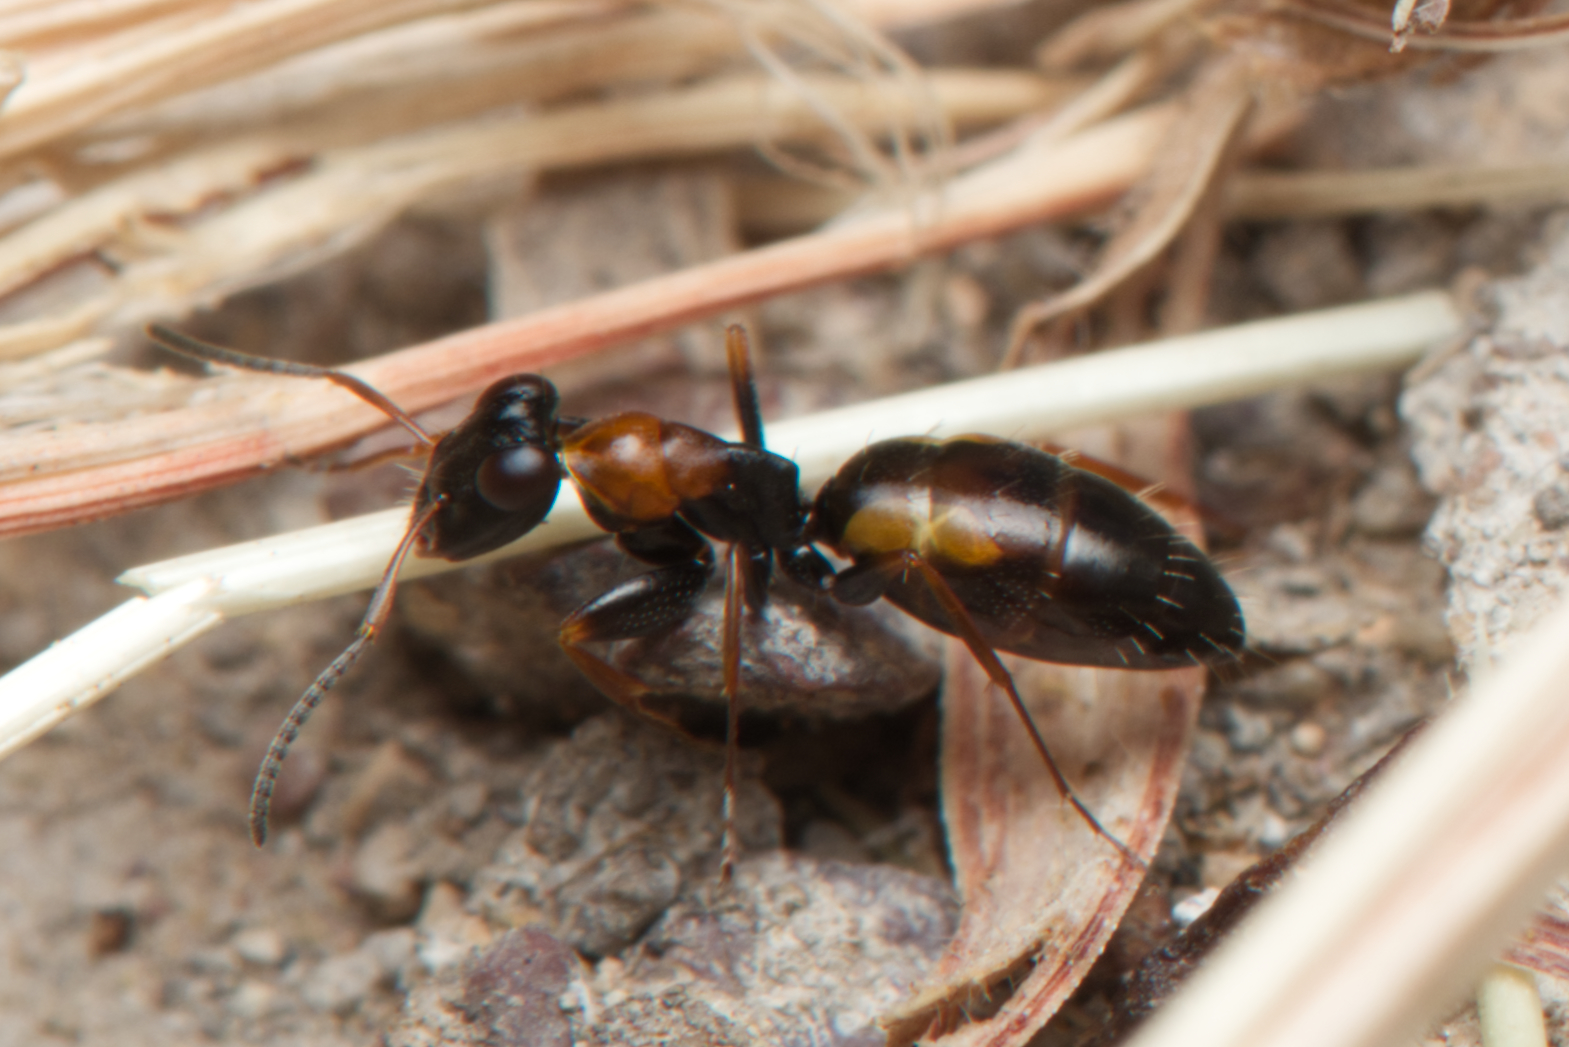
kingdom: Animalia
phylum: Arthropoda
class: Insecta
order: Hymenoptera
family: Formicidae
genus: Opisthopsis
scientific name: Opisthopsis pictus
